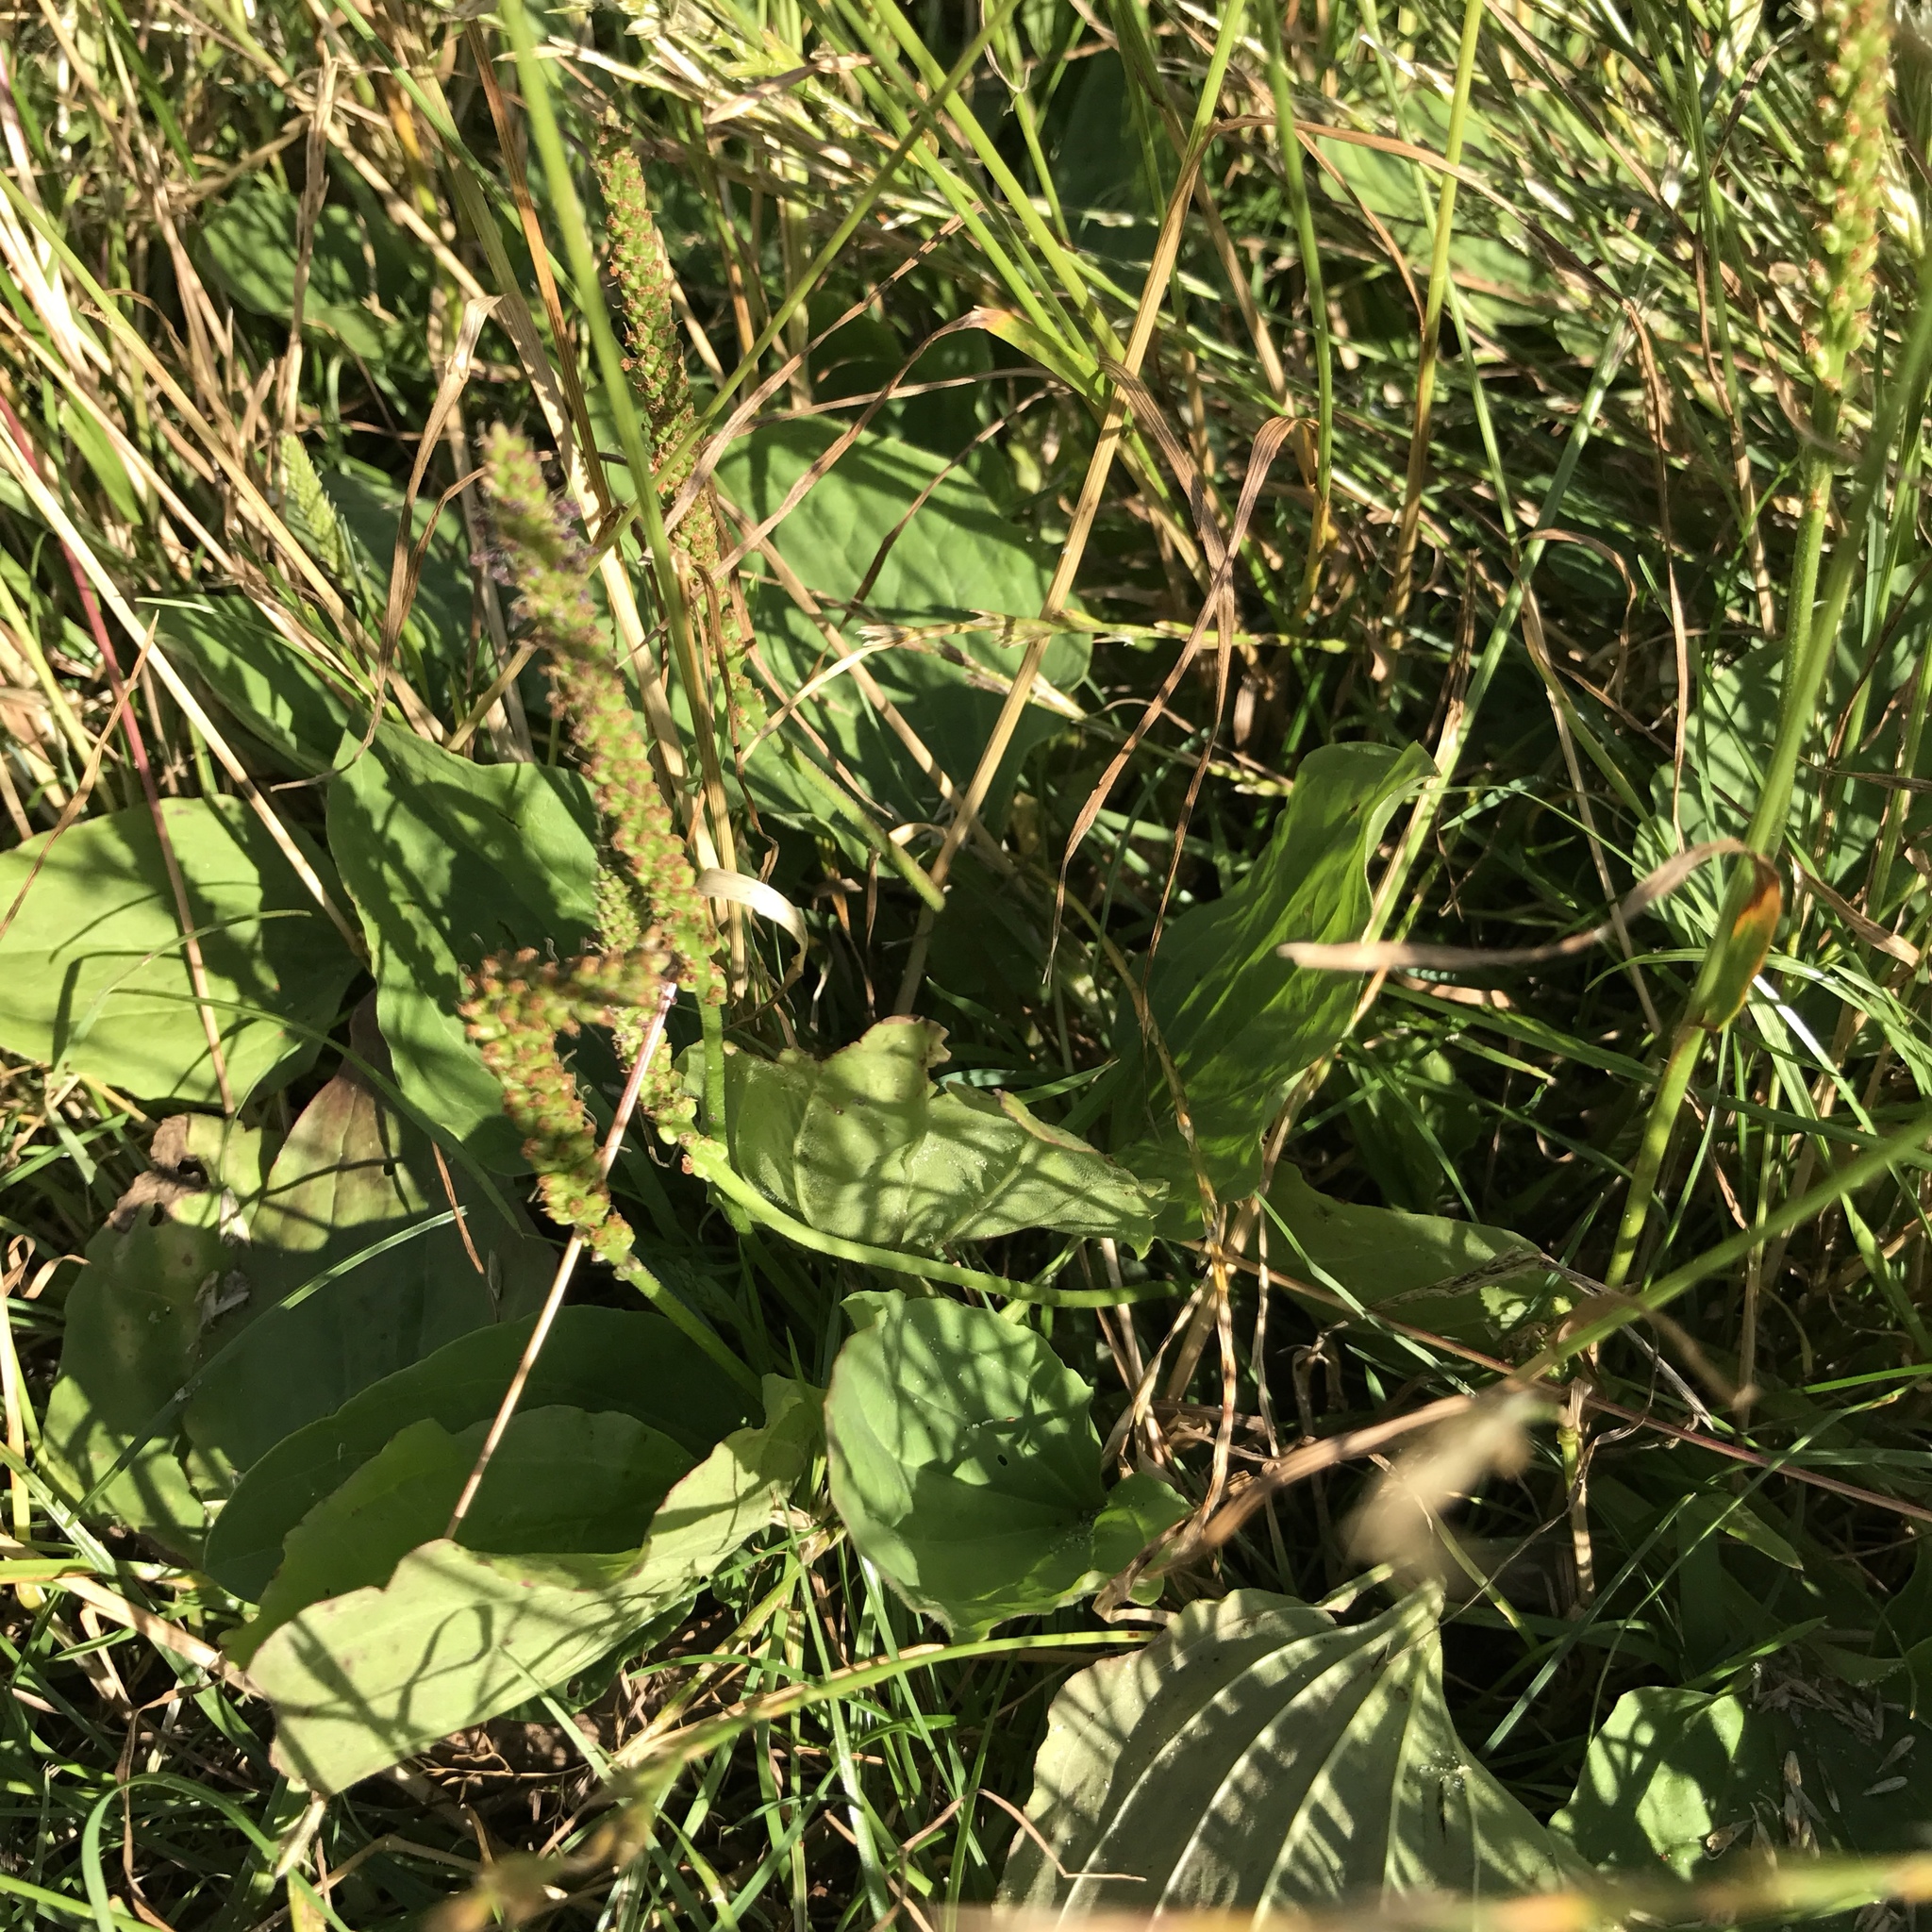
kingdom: Plantae
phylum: Tracheophyta
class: Magnoliopsida
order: Lamiales
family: Plantaginaceae
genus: Plantago
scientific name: Plantago major
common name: Common plantain
